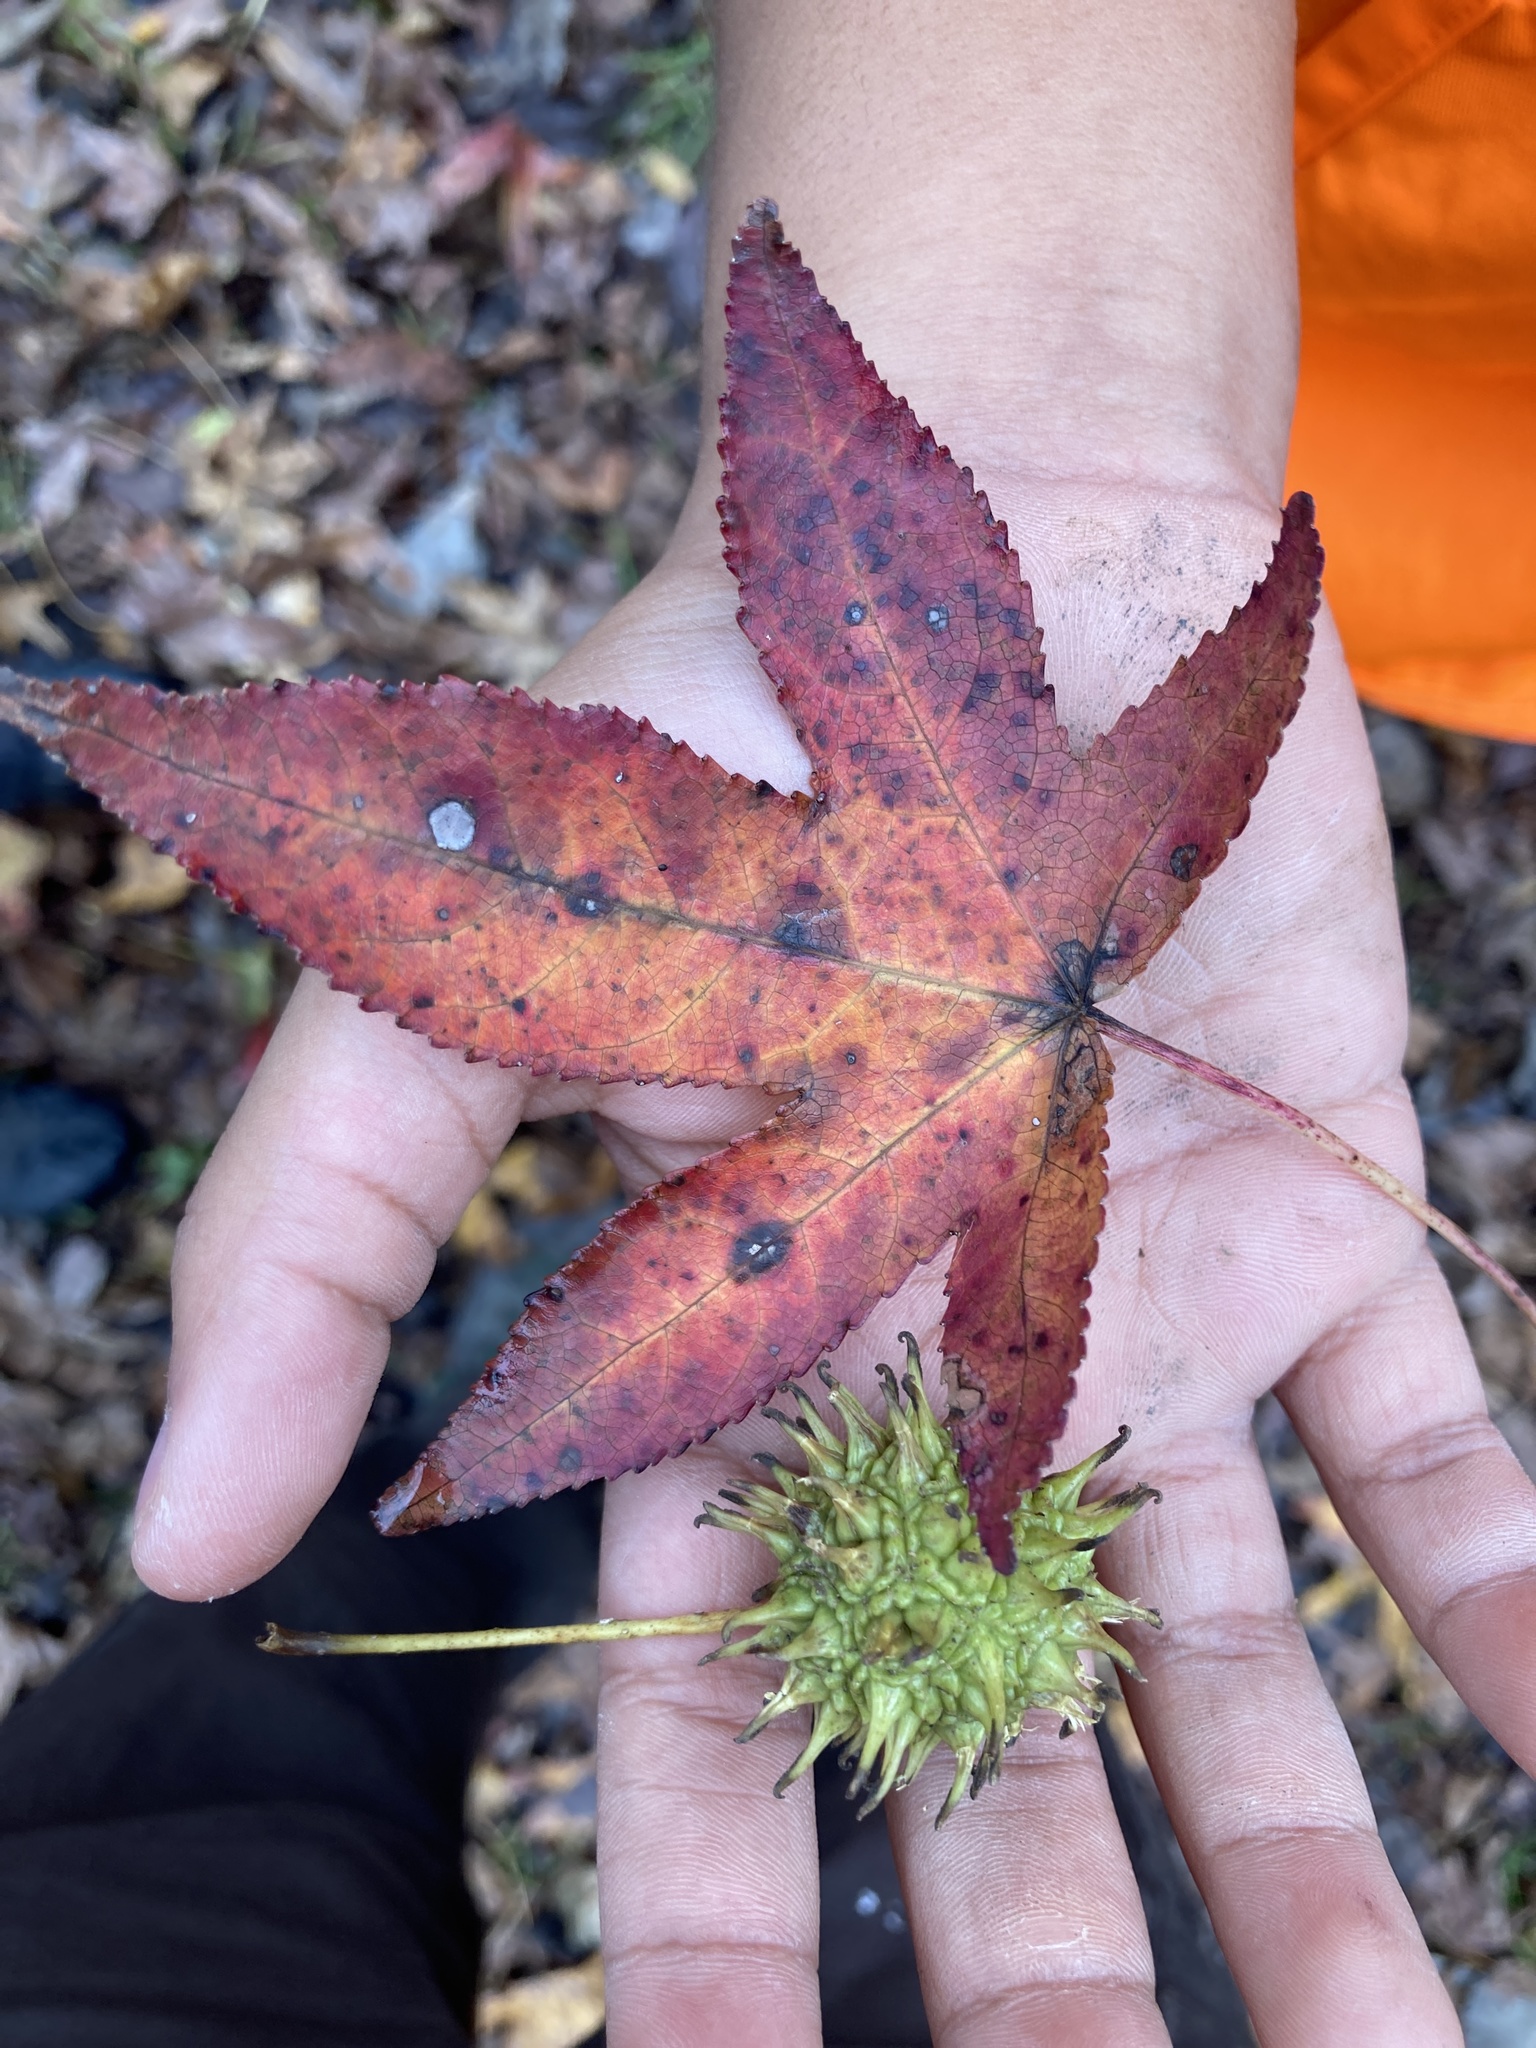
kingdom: Plantae
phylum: Tracheophyta
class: Magnoliopsida
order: Saxifragales
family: Altingiaceae
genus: Liquidambar
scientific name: Liquidambar styraciflua
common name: Sweet gum
